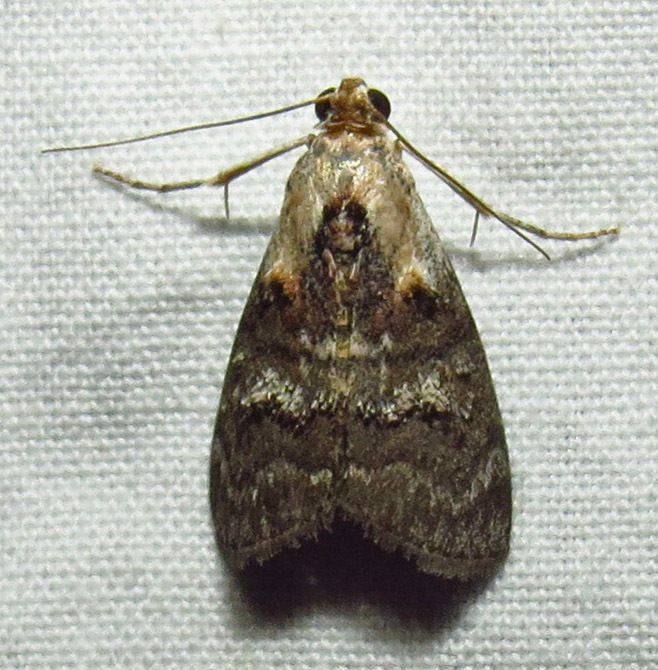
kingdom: Animalia
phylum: Arthropoda
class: Insecta
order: Lepidoptera
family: Pyralidae
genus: Pococera
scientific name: Pococera asperatella
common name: Maple webworm moth
